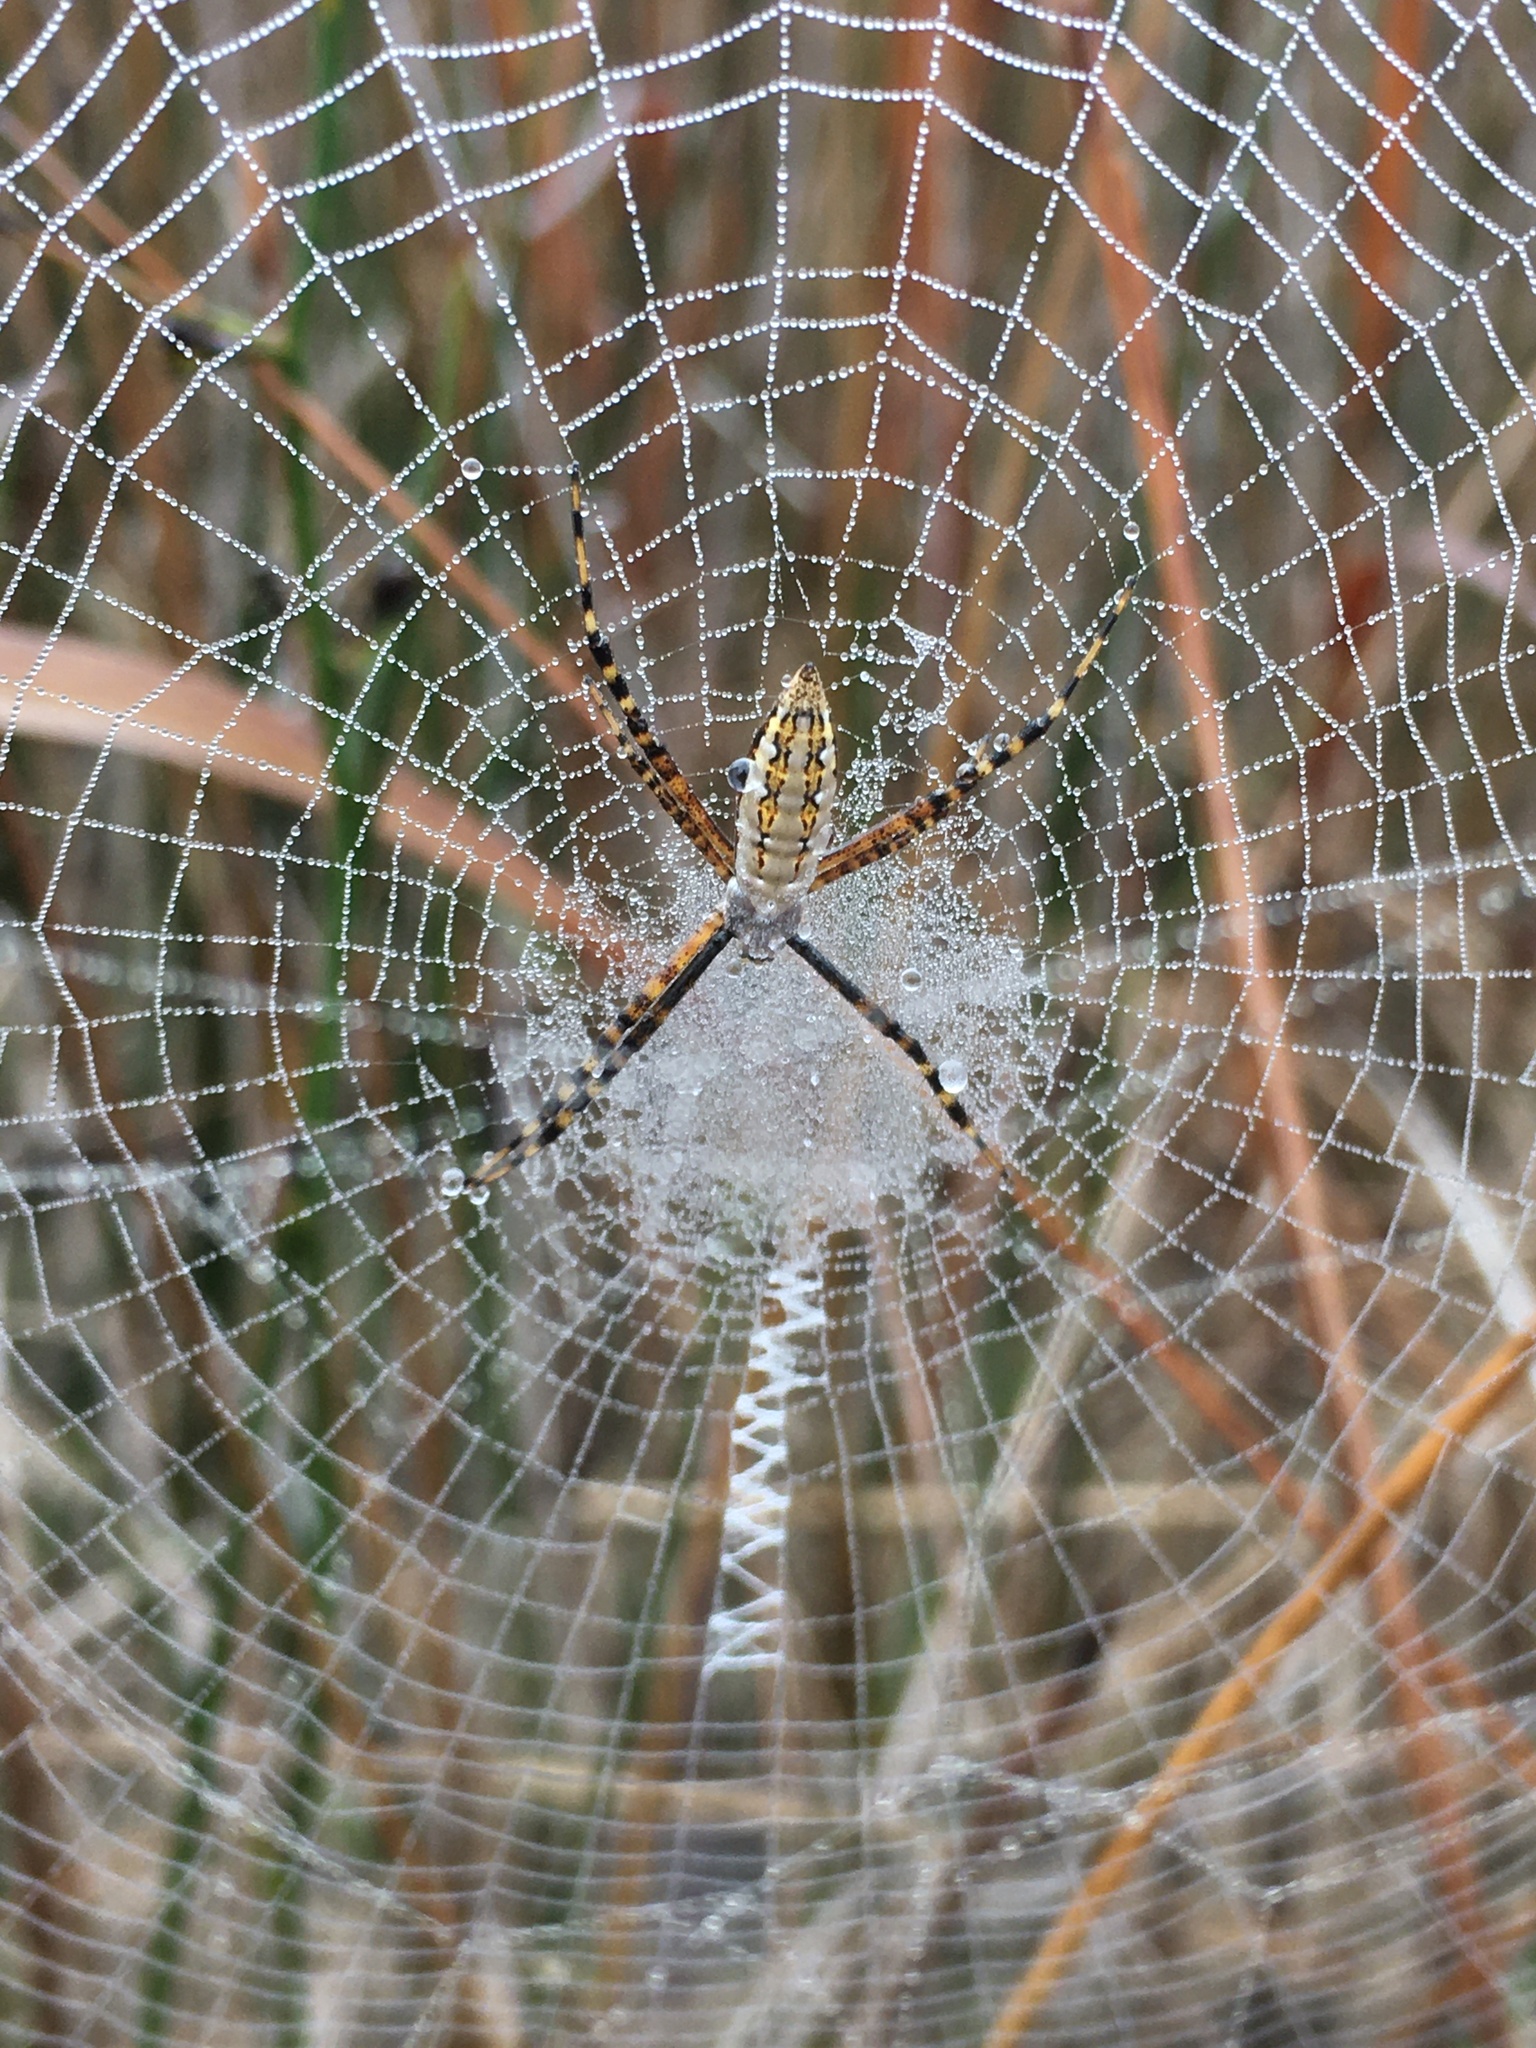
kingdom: Animalia
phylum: Arthropoda
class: Arachnida
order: Araneae
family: Araneidae
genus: Argiope
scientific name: Argiope trifasciata
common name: Banded garden spider
